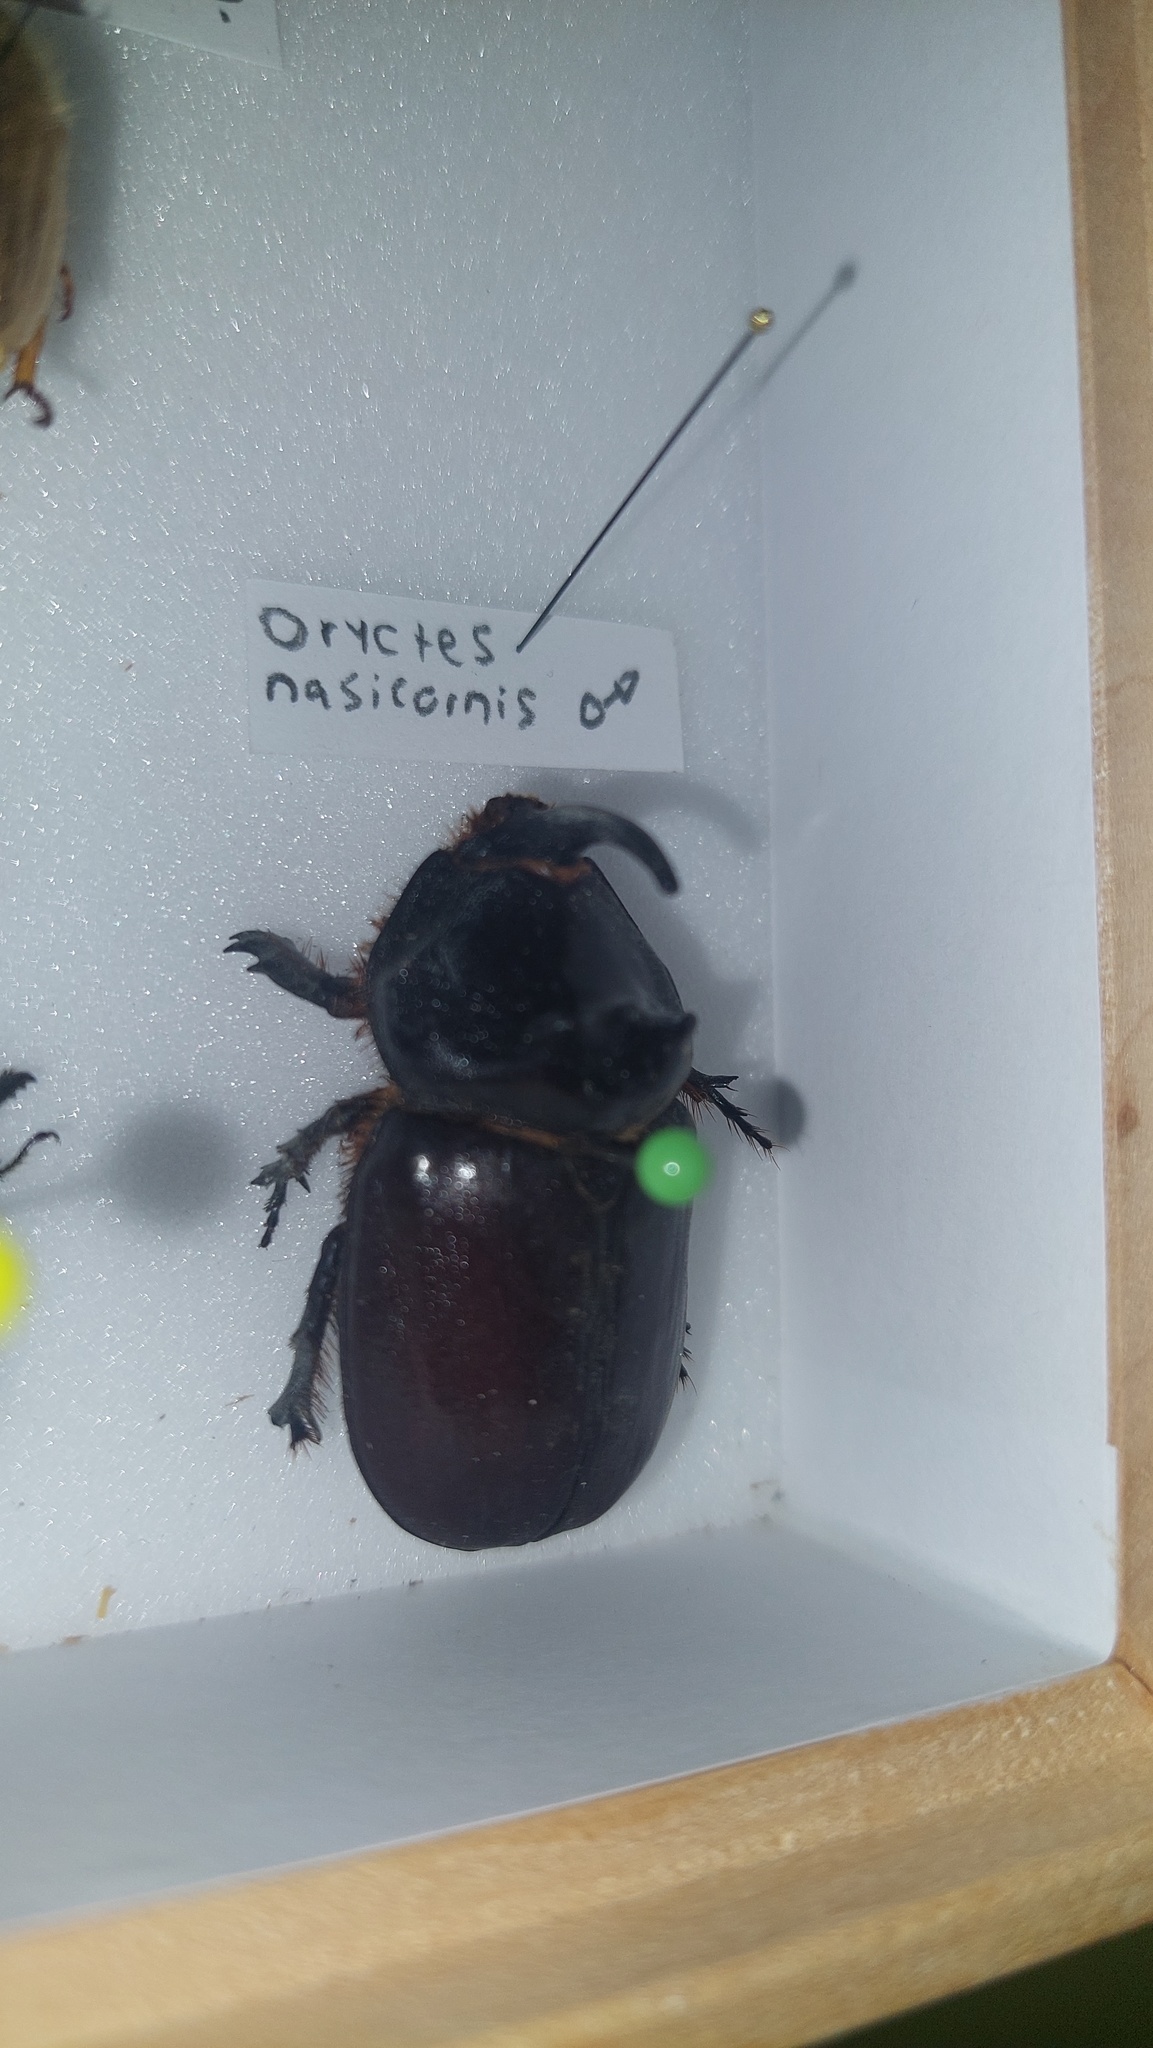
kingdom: Animalia
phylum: Arthropoda
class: Insecta
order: Coleoptera
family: Scarabaeidae
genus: Oryctes
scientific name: Oryctes nasicornis
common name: European rhinoceros beetle
